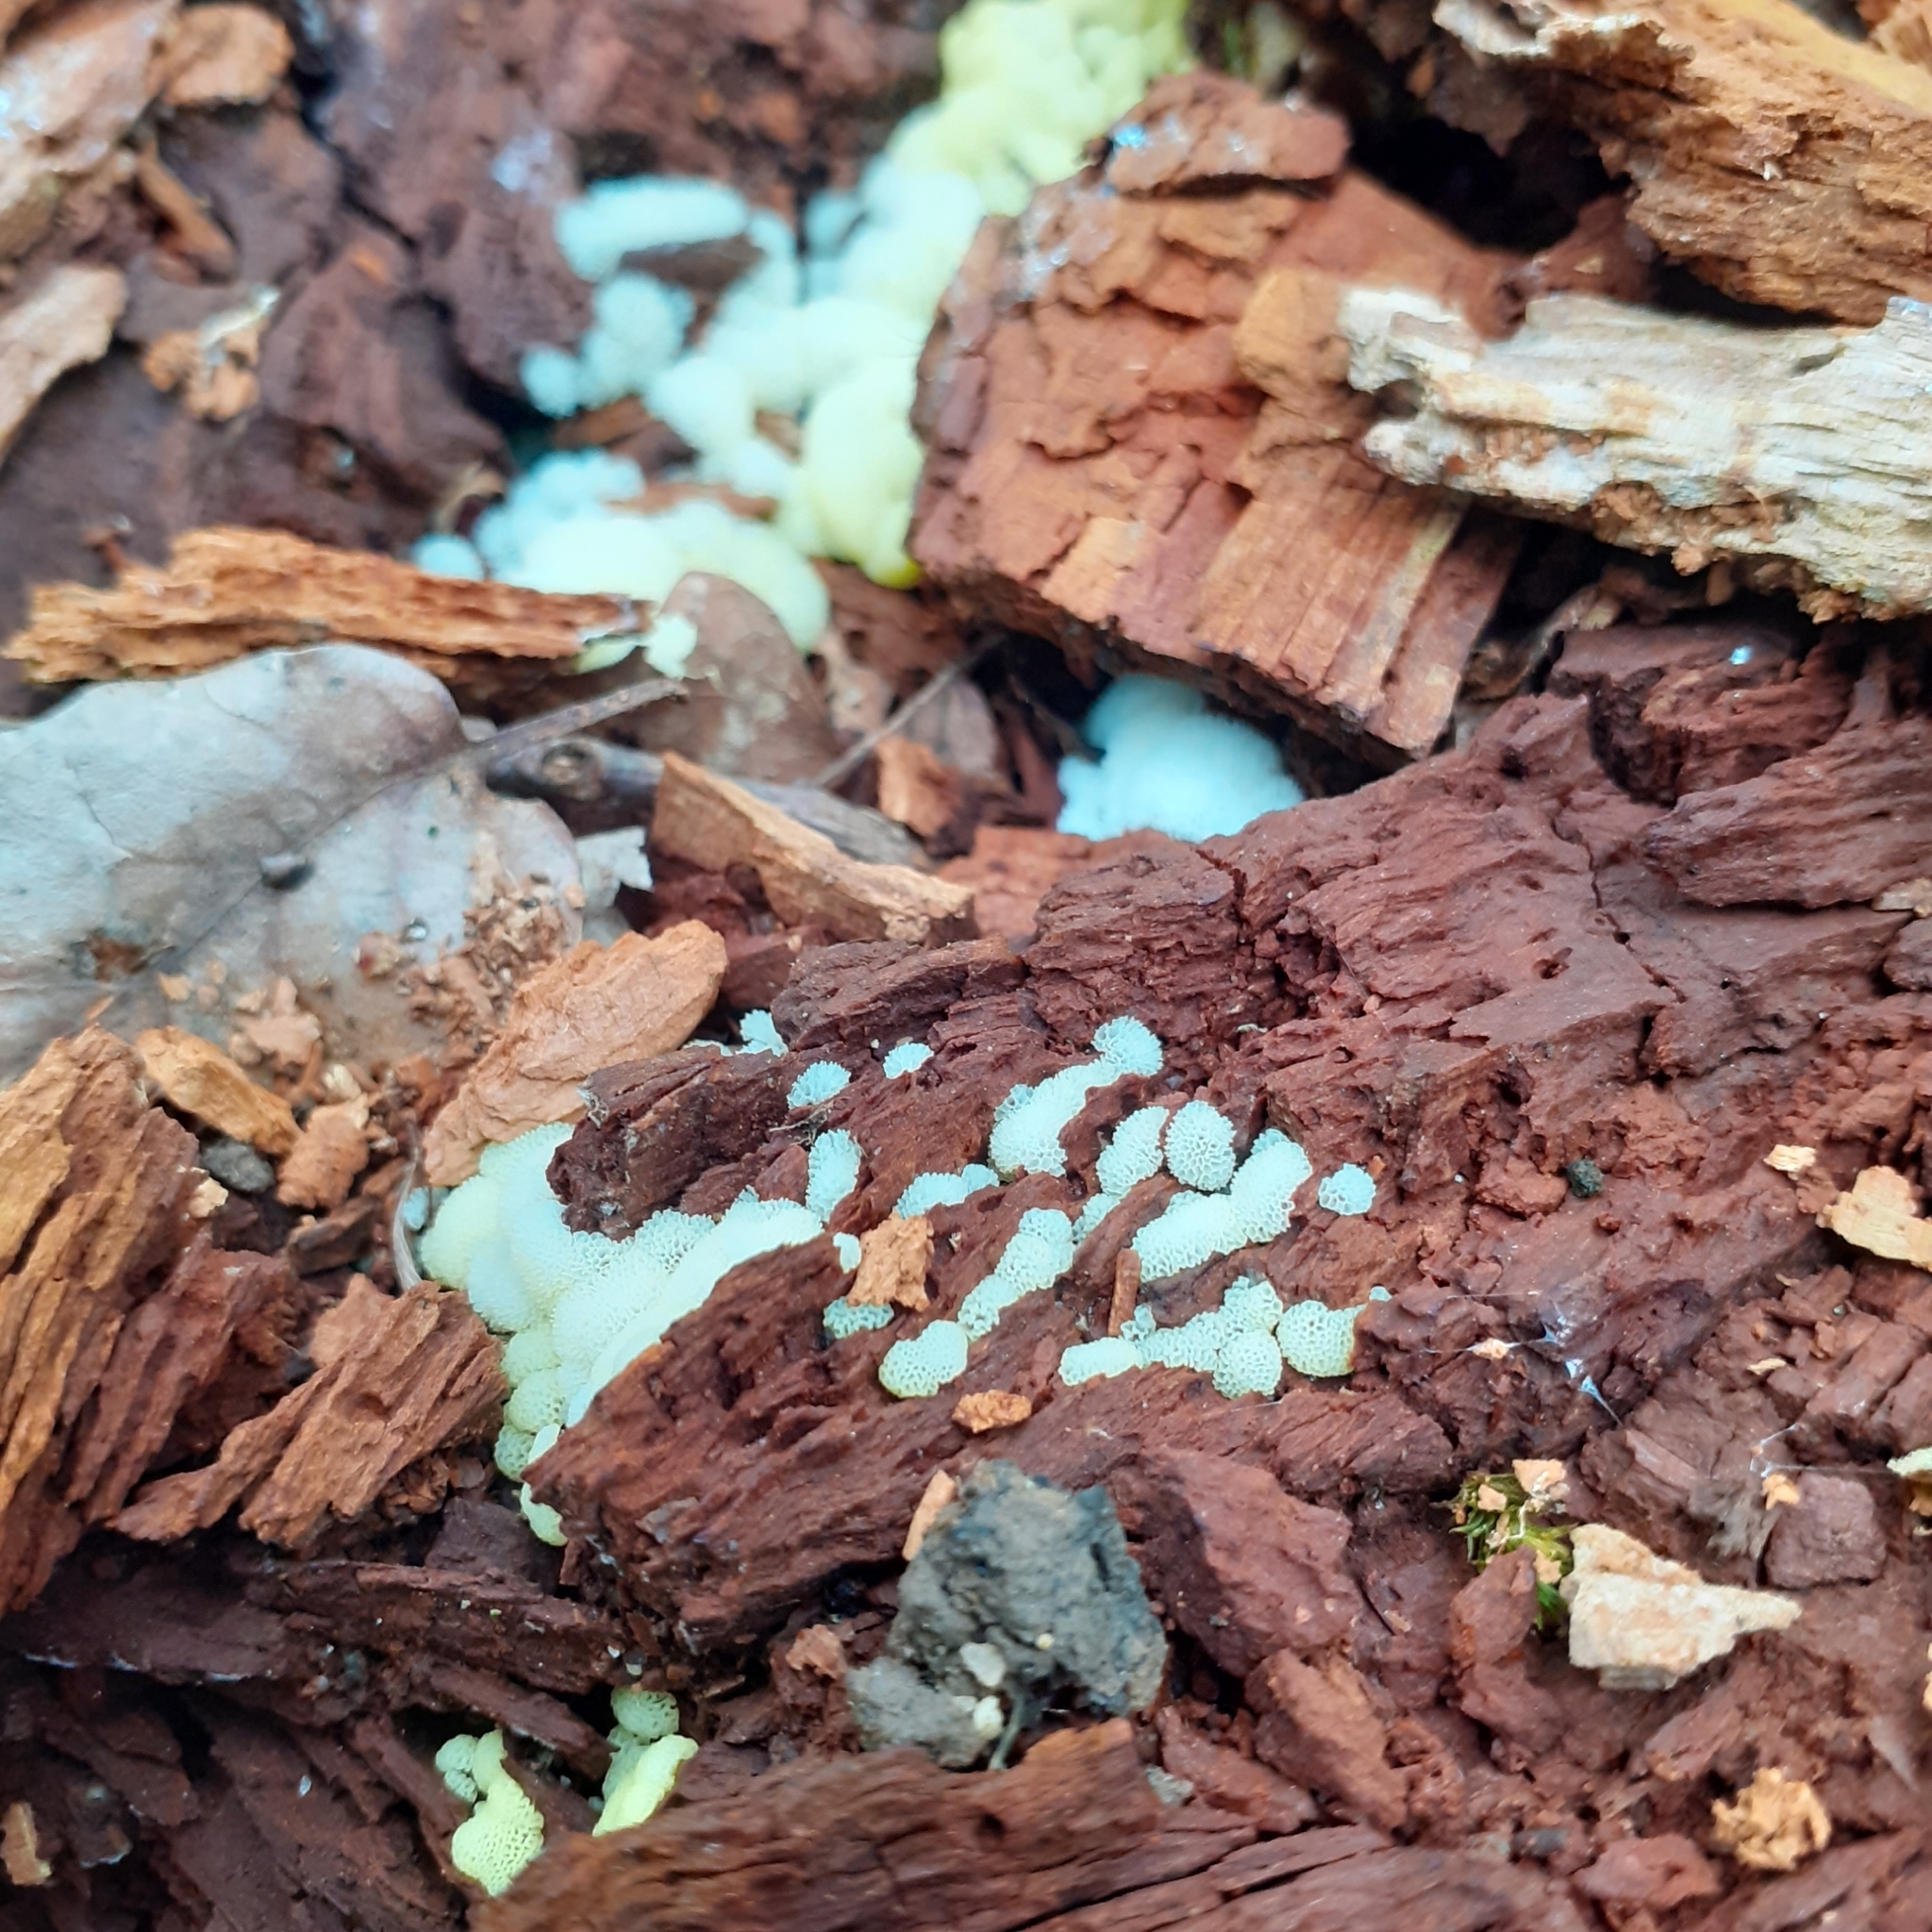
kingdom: Protozoa
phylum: Mycetozoa
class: Protosteliomycetes
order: Ceratiomyxales
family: Ceratiomyxaceae
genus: Ceratiomyxa
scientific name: Ceratiomyxa fruticulosa
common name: Honeycomb coral slime mold
